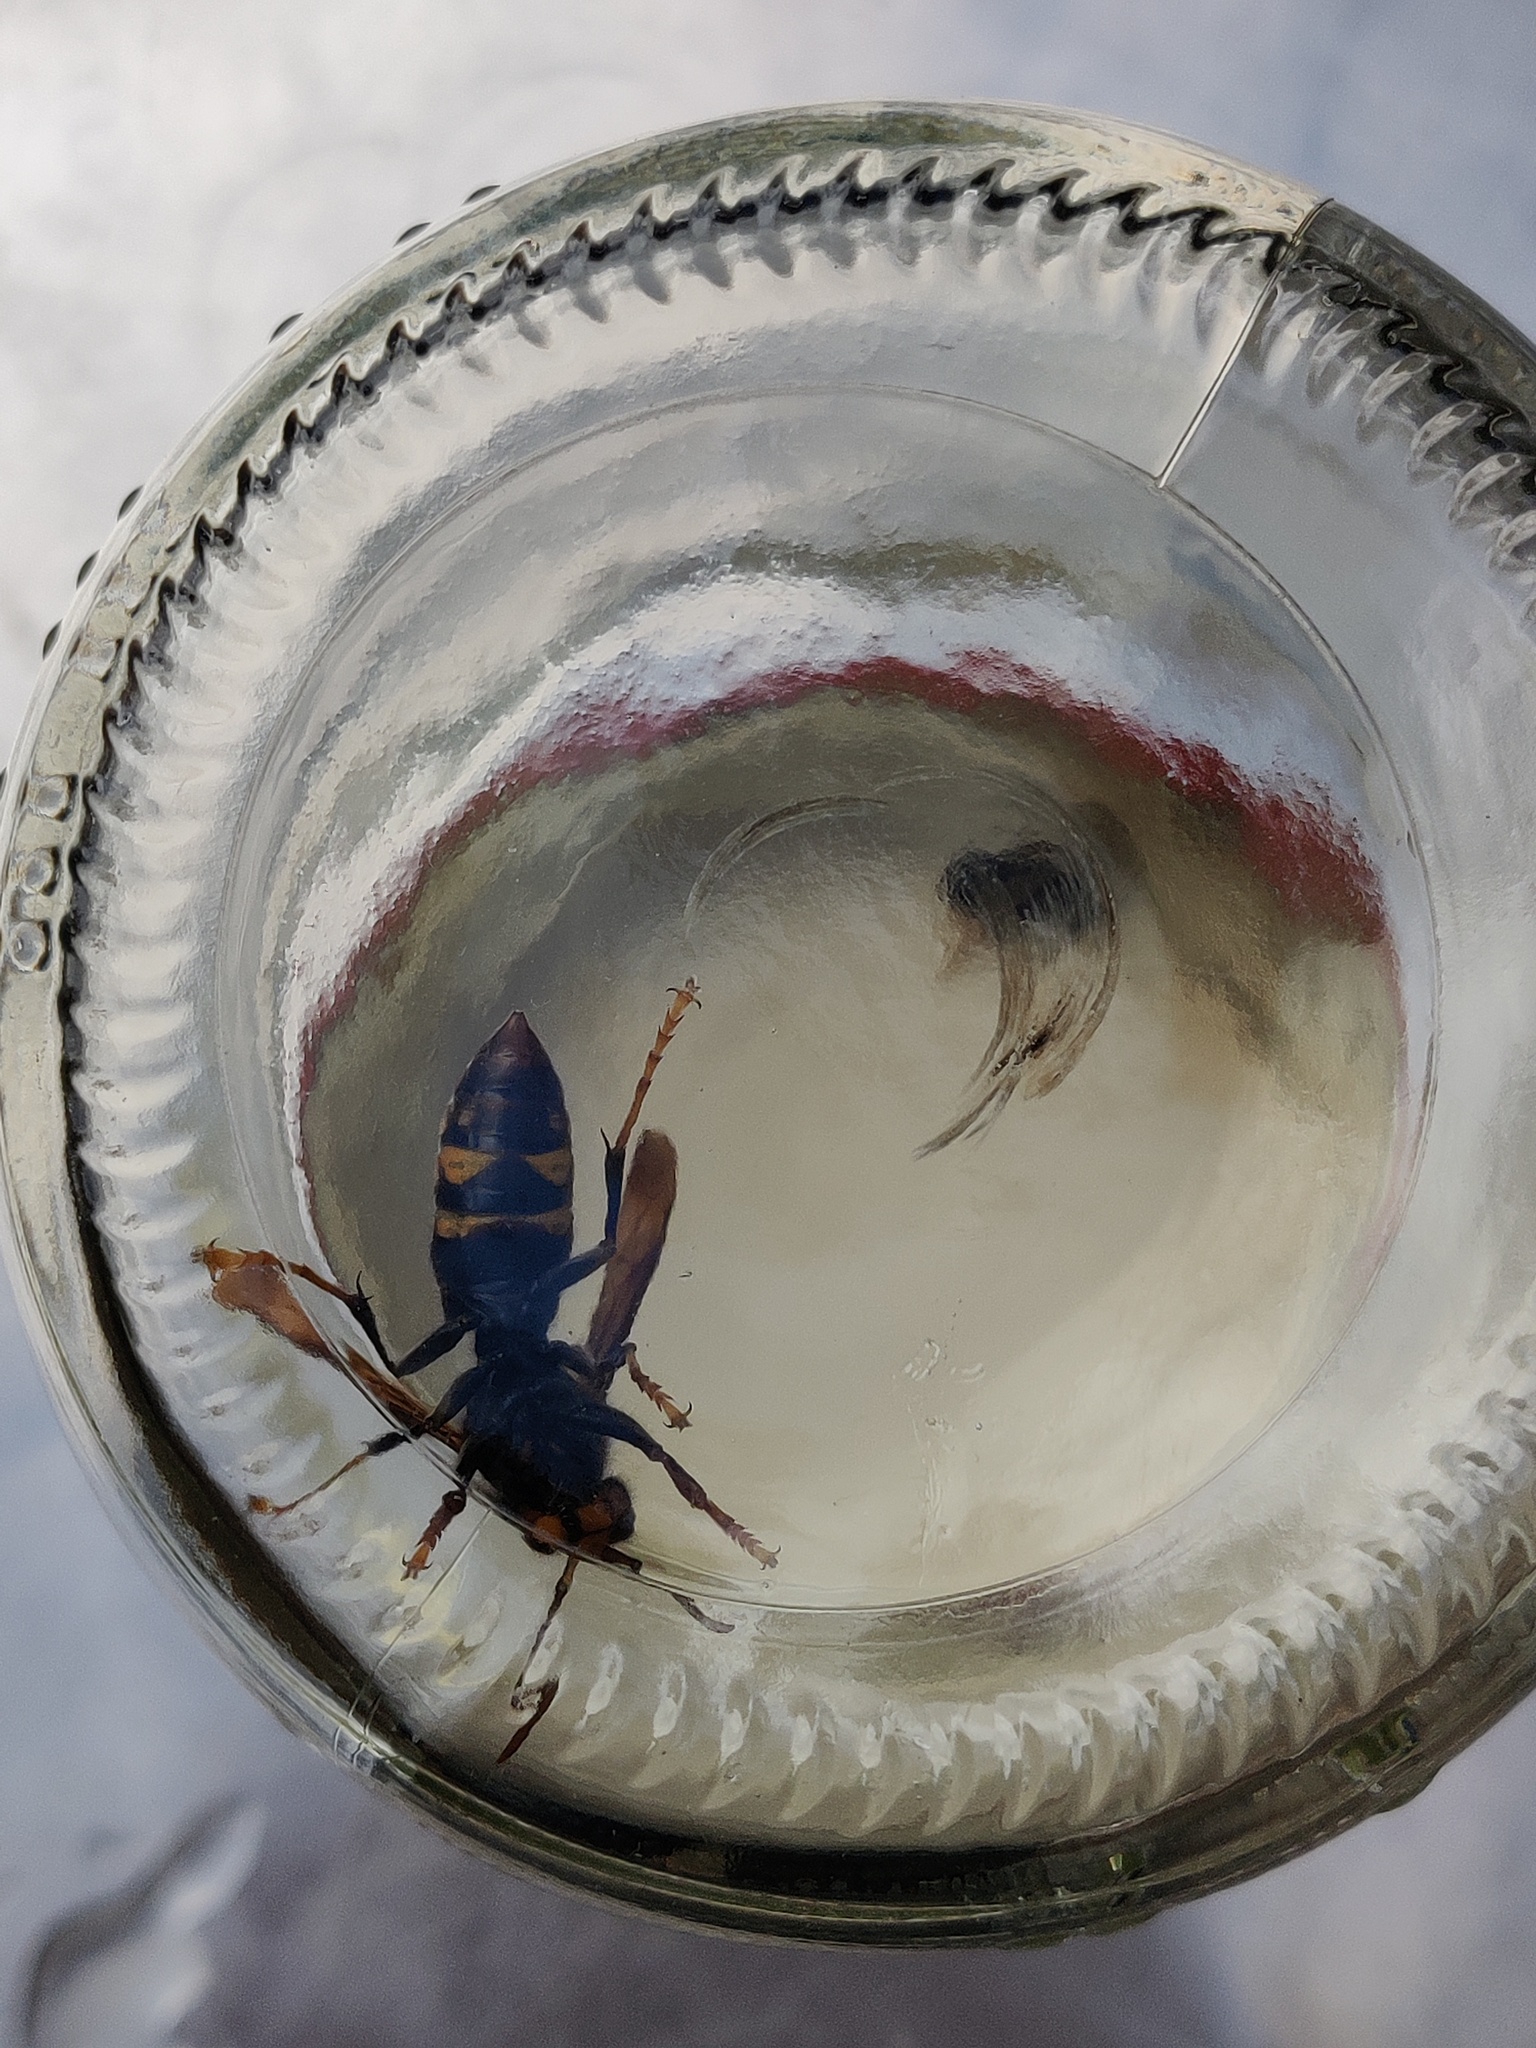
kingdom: Animalia
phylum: Arthropoda
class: Insecta
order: Hymenoptera
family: Vespidae
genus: Vespa
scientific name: Vespa velutina
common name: Asian hornet
